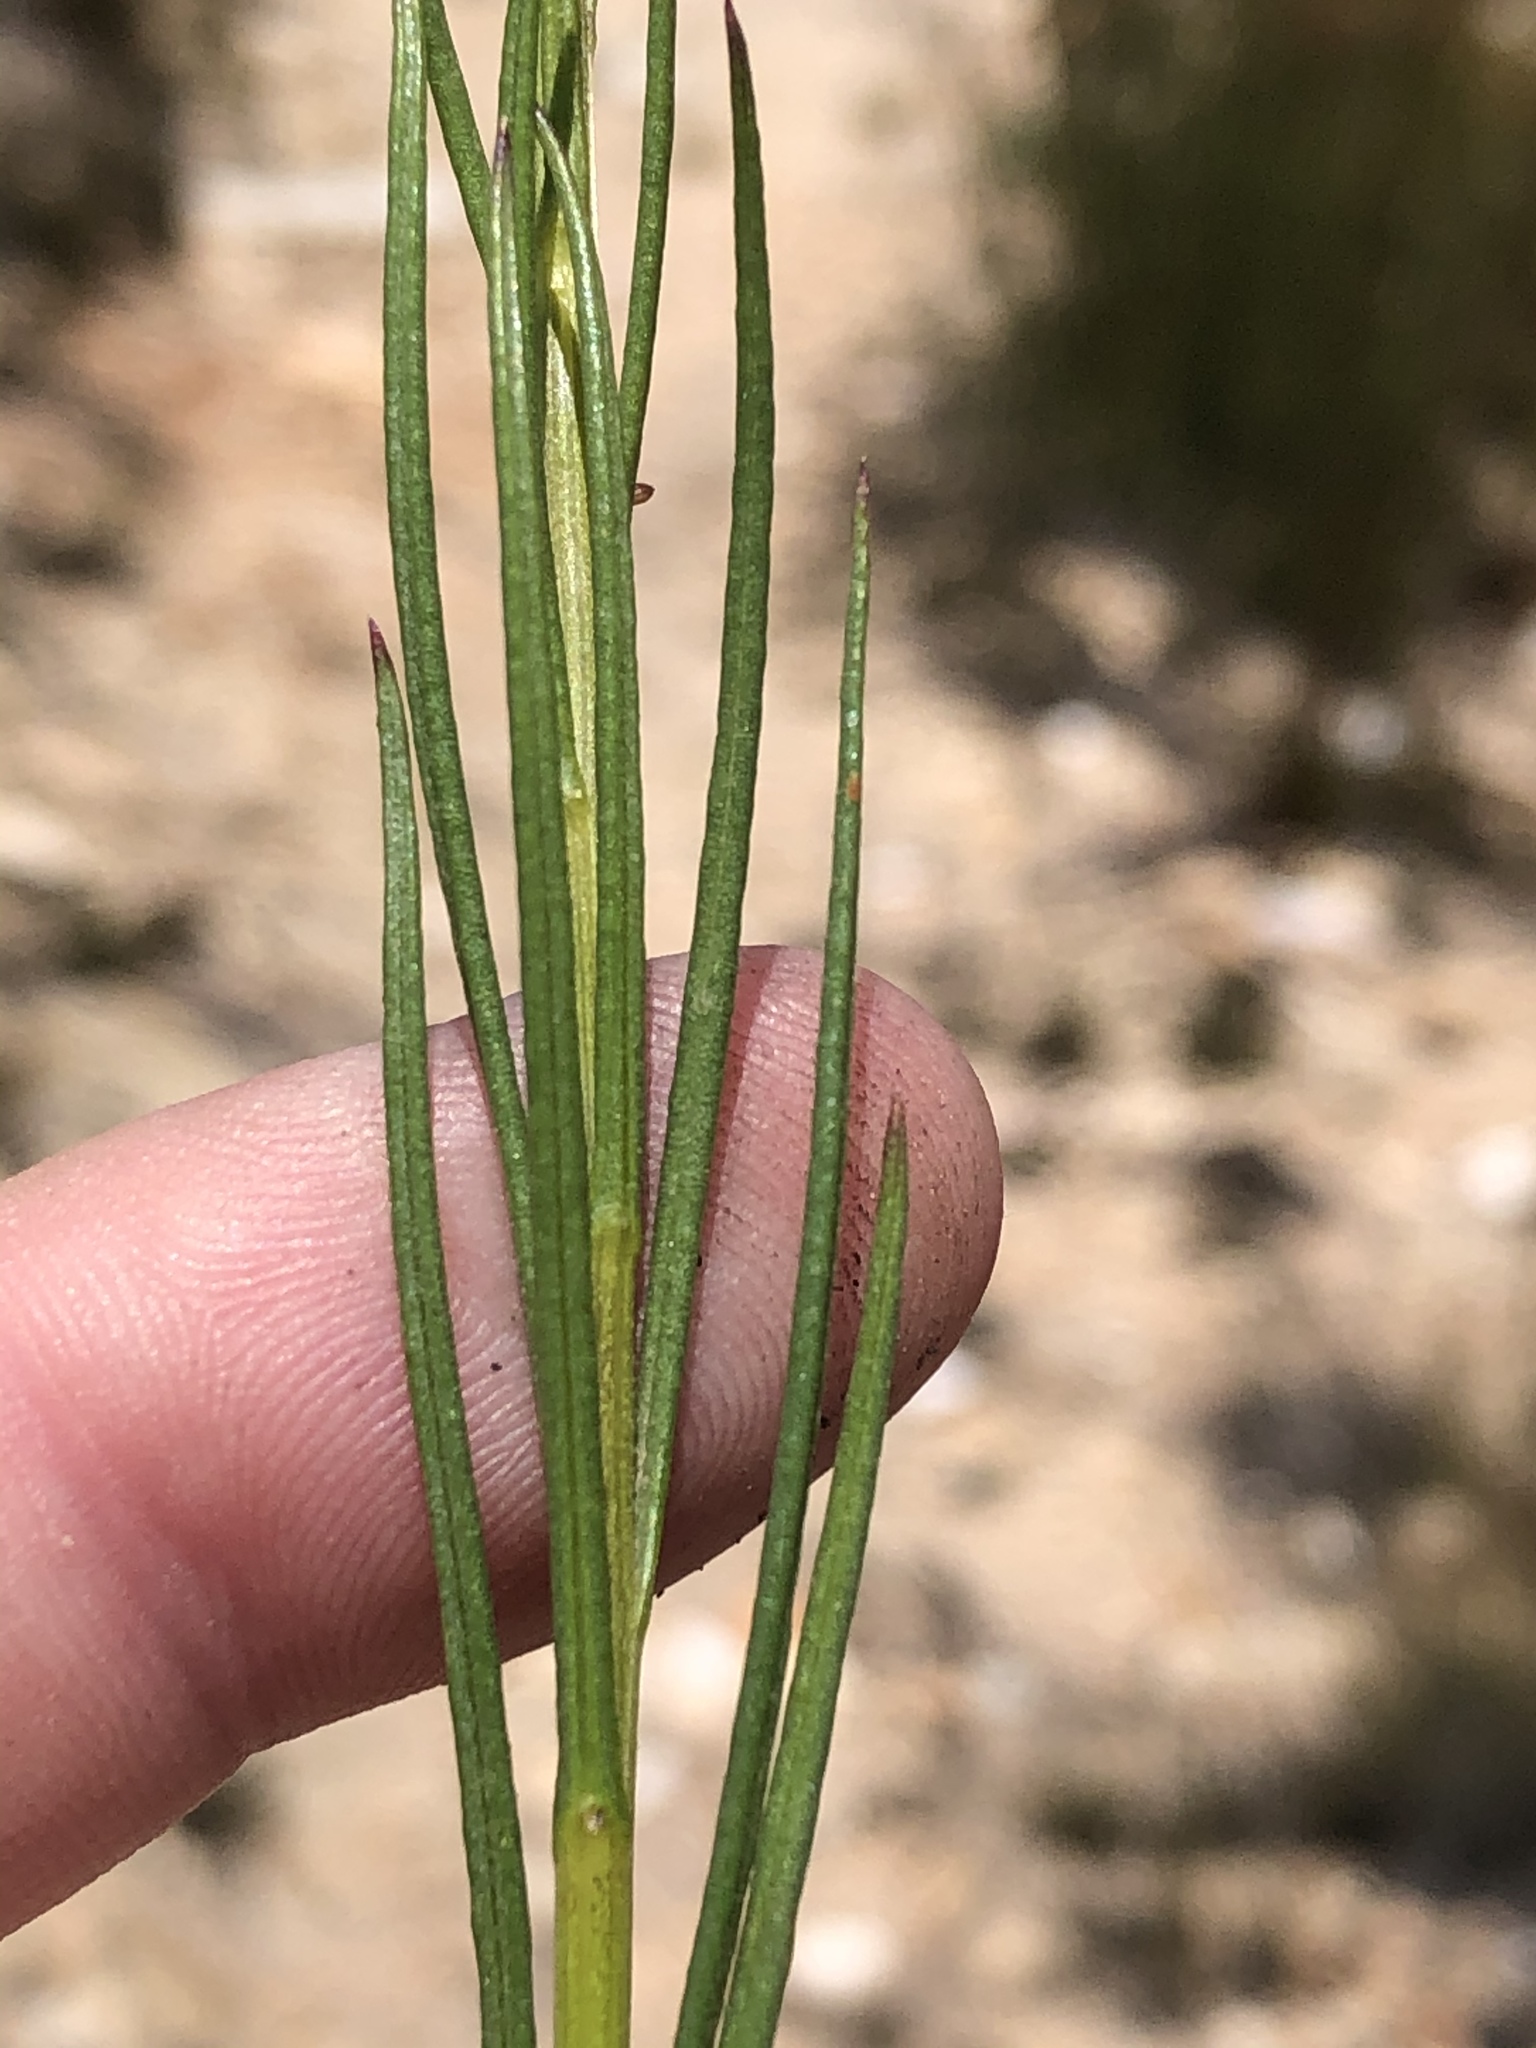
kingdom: Plantae
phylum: Tracheophyta
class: Magnoliopsida
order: Asterales
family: Asteraceae
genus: Senecio
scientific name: Senecio paniculatus
